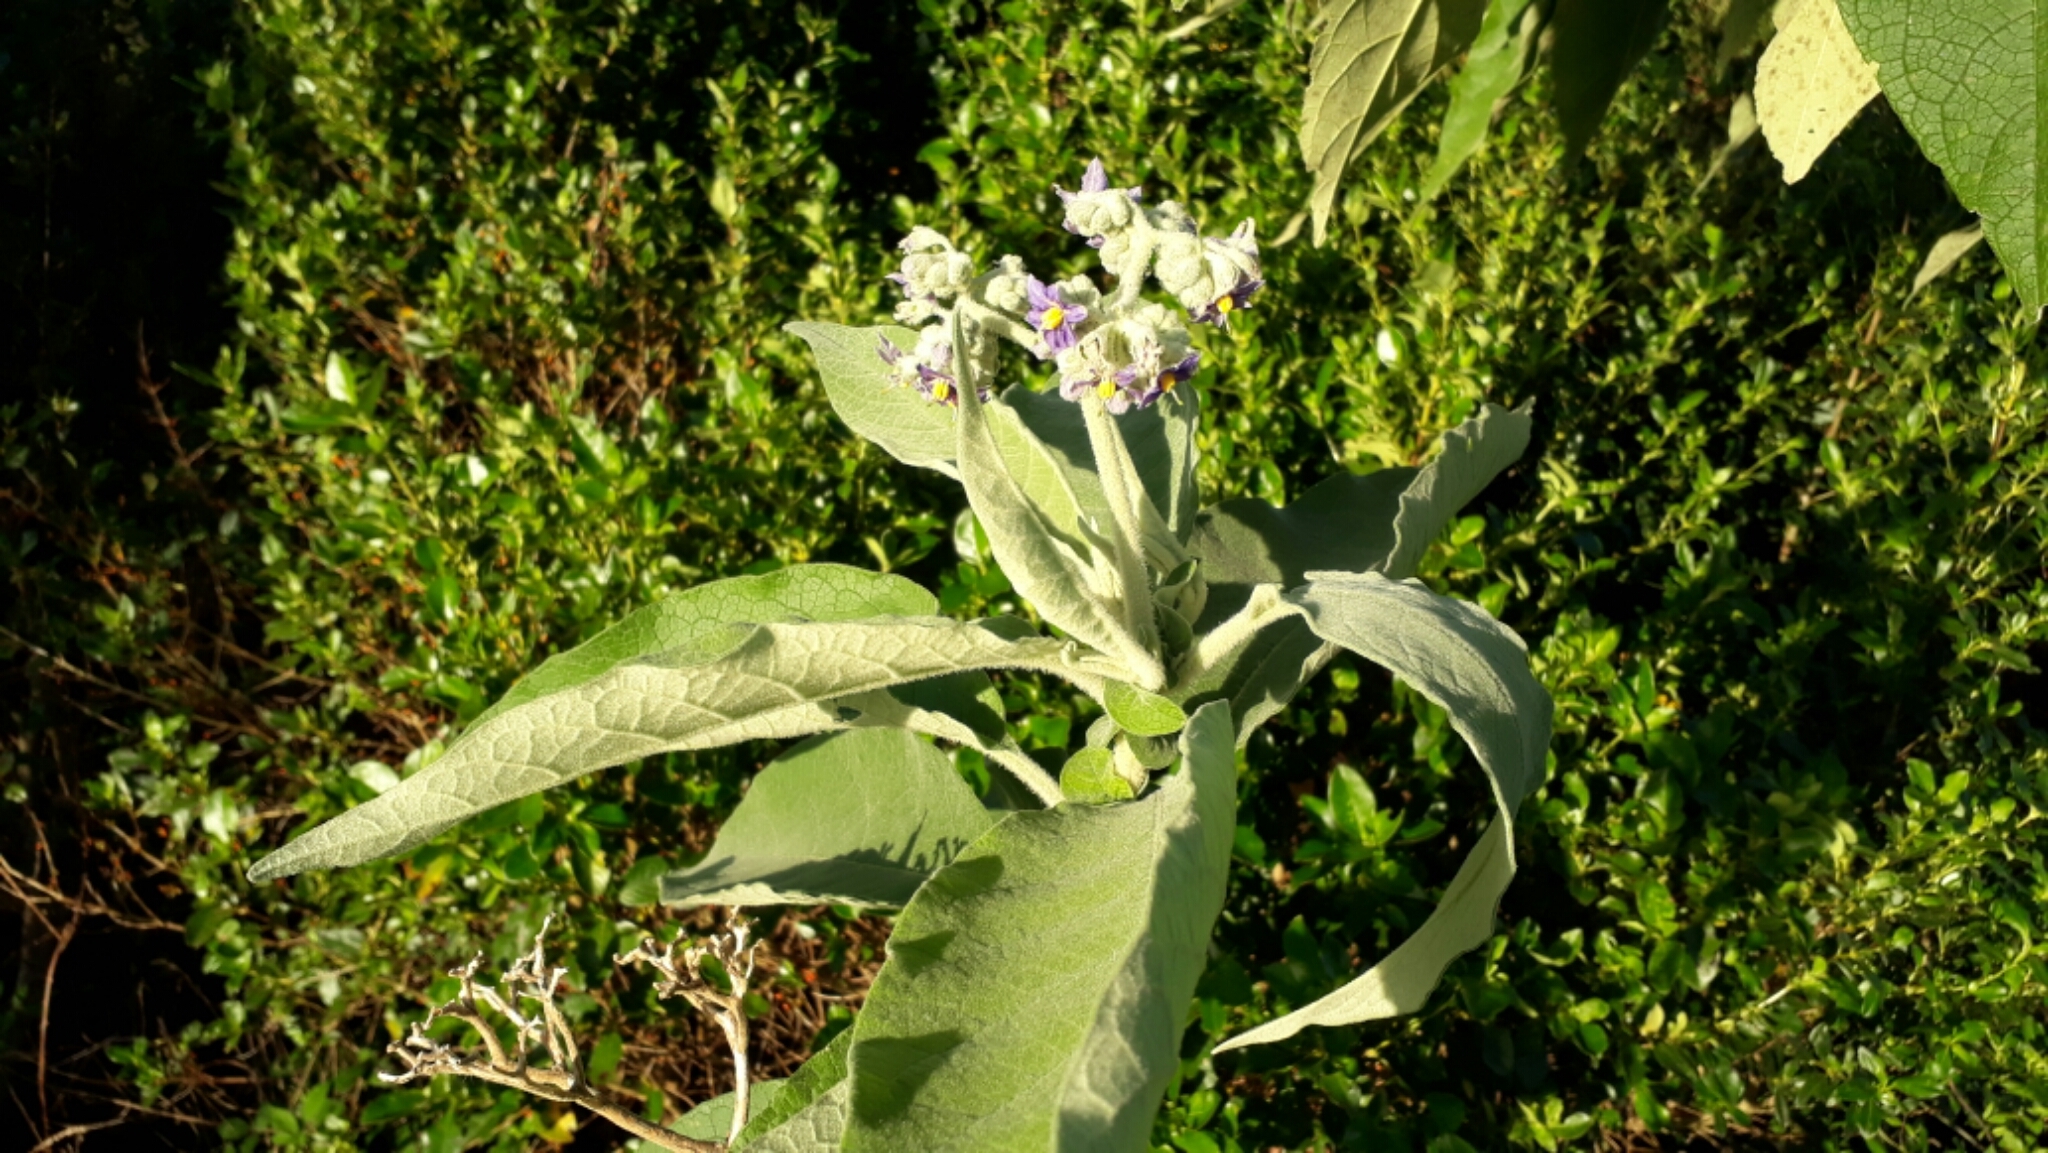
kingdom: Plantae
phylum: Tracheophyta
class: Magnoliopsida
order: Solanales
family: Solanaceae
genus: Solanum
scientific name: Solanum mauritianum
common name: Earleaf nightshade
